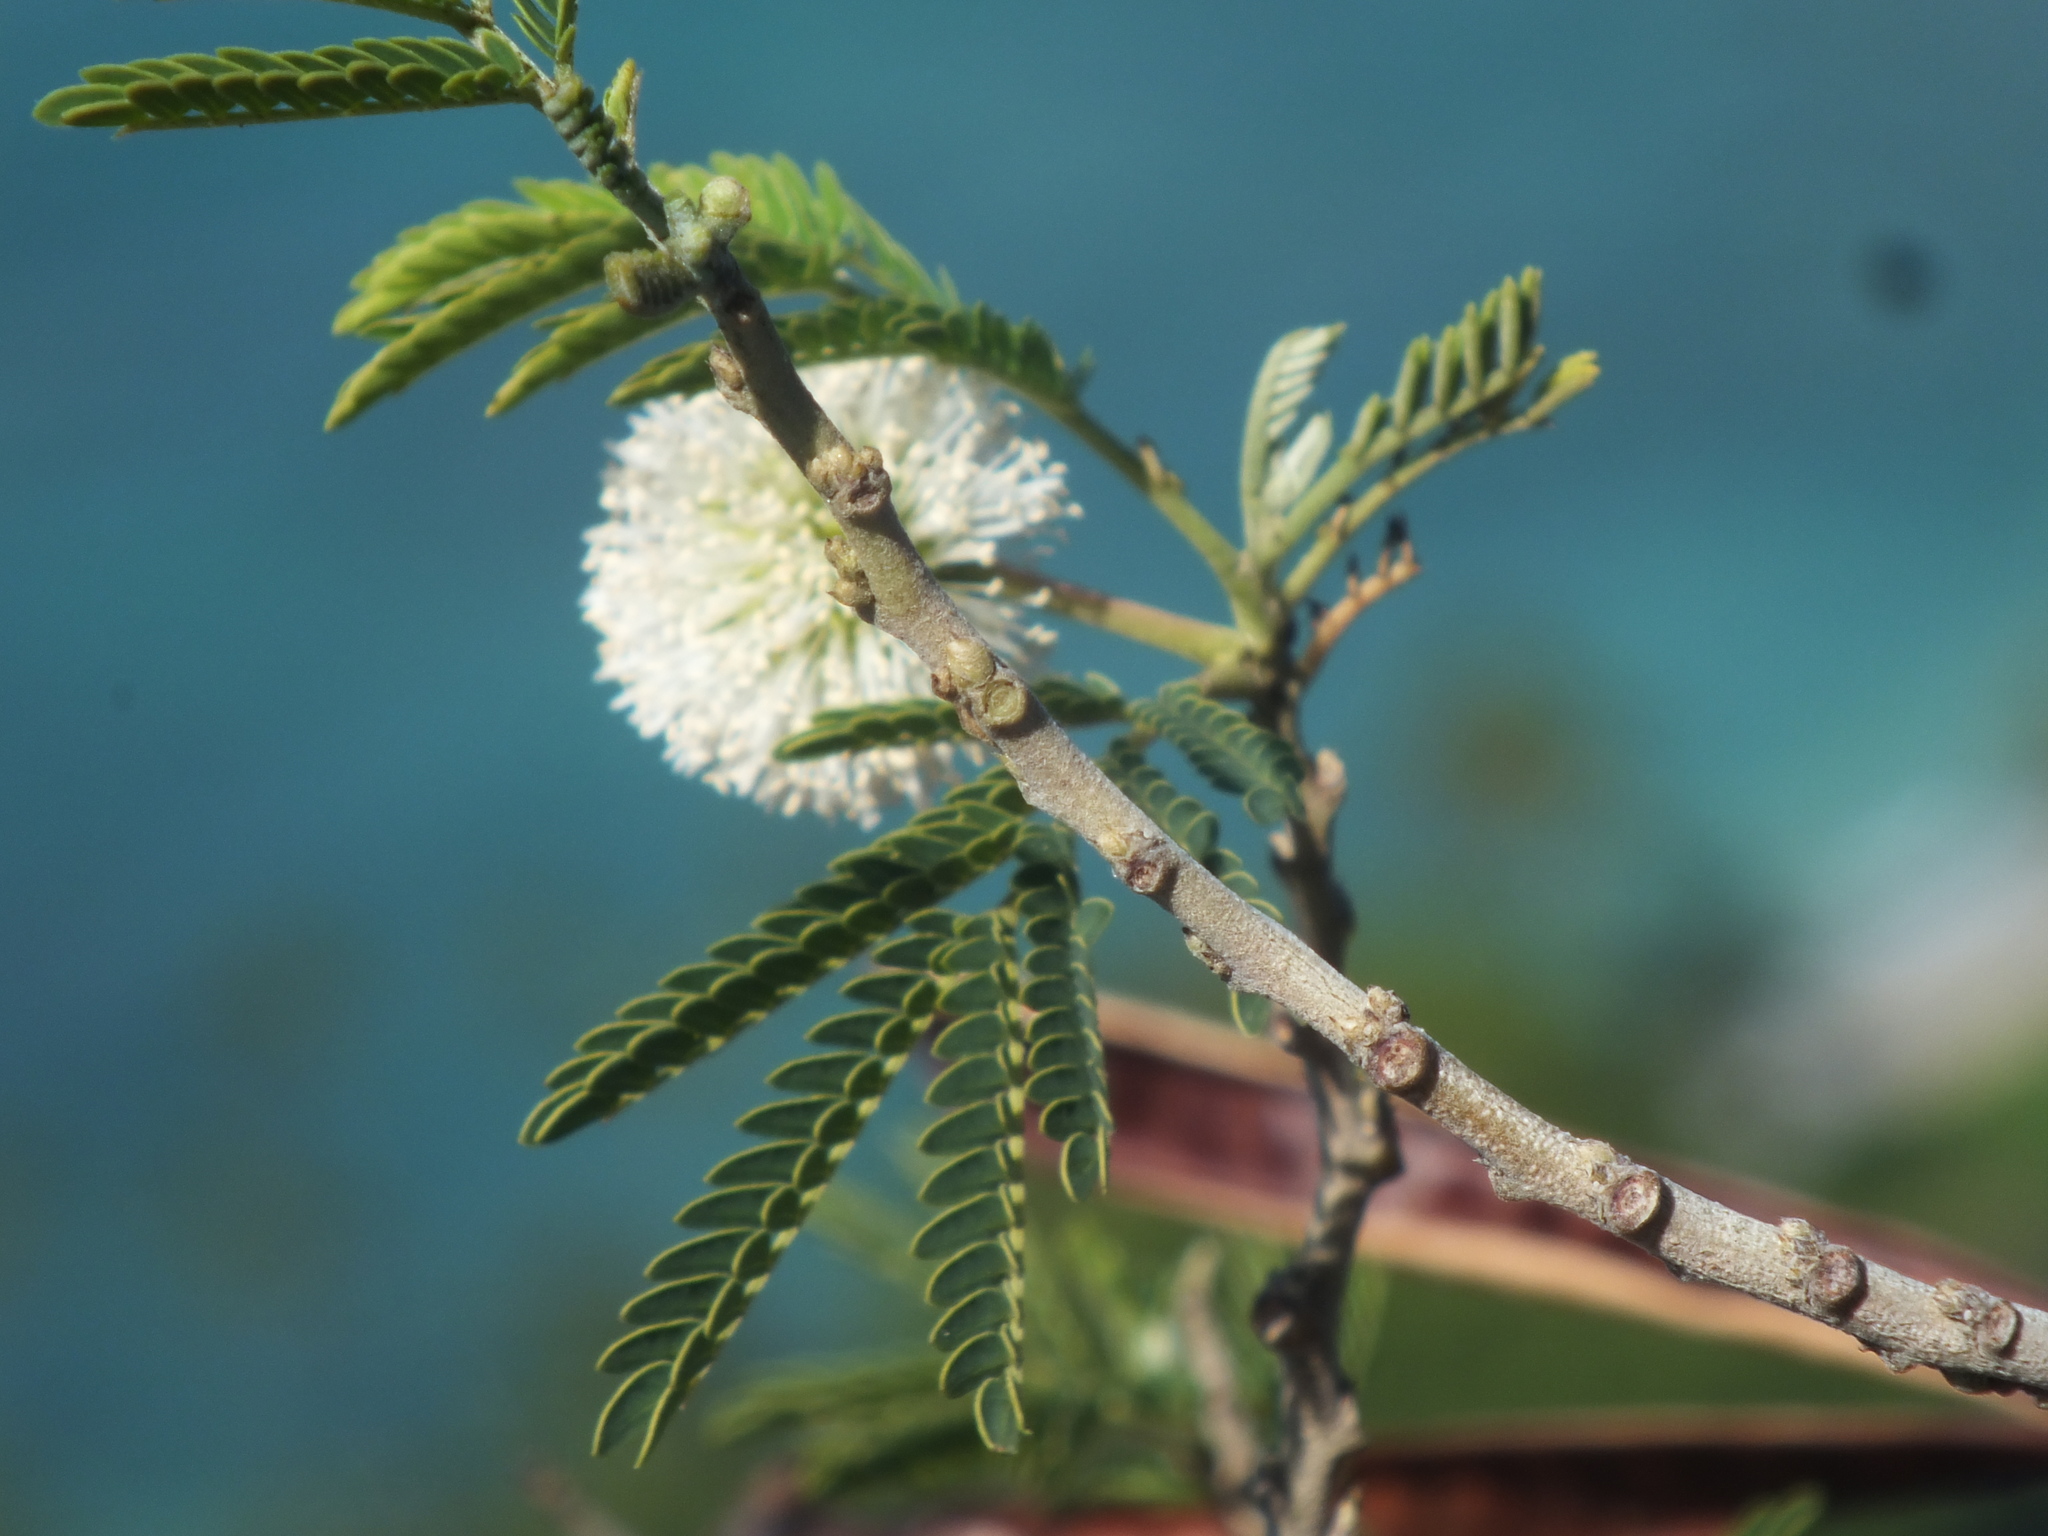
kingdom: Plantae
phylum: Tracheophyta
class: Magnoliopsida
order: Fabales
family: Fabaceae
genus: Leucaena
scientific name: Leucaena leucocephala
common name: White leadtree
